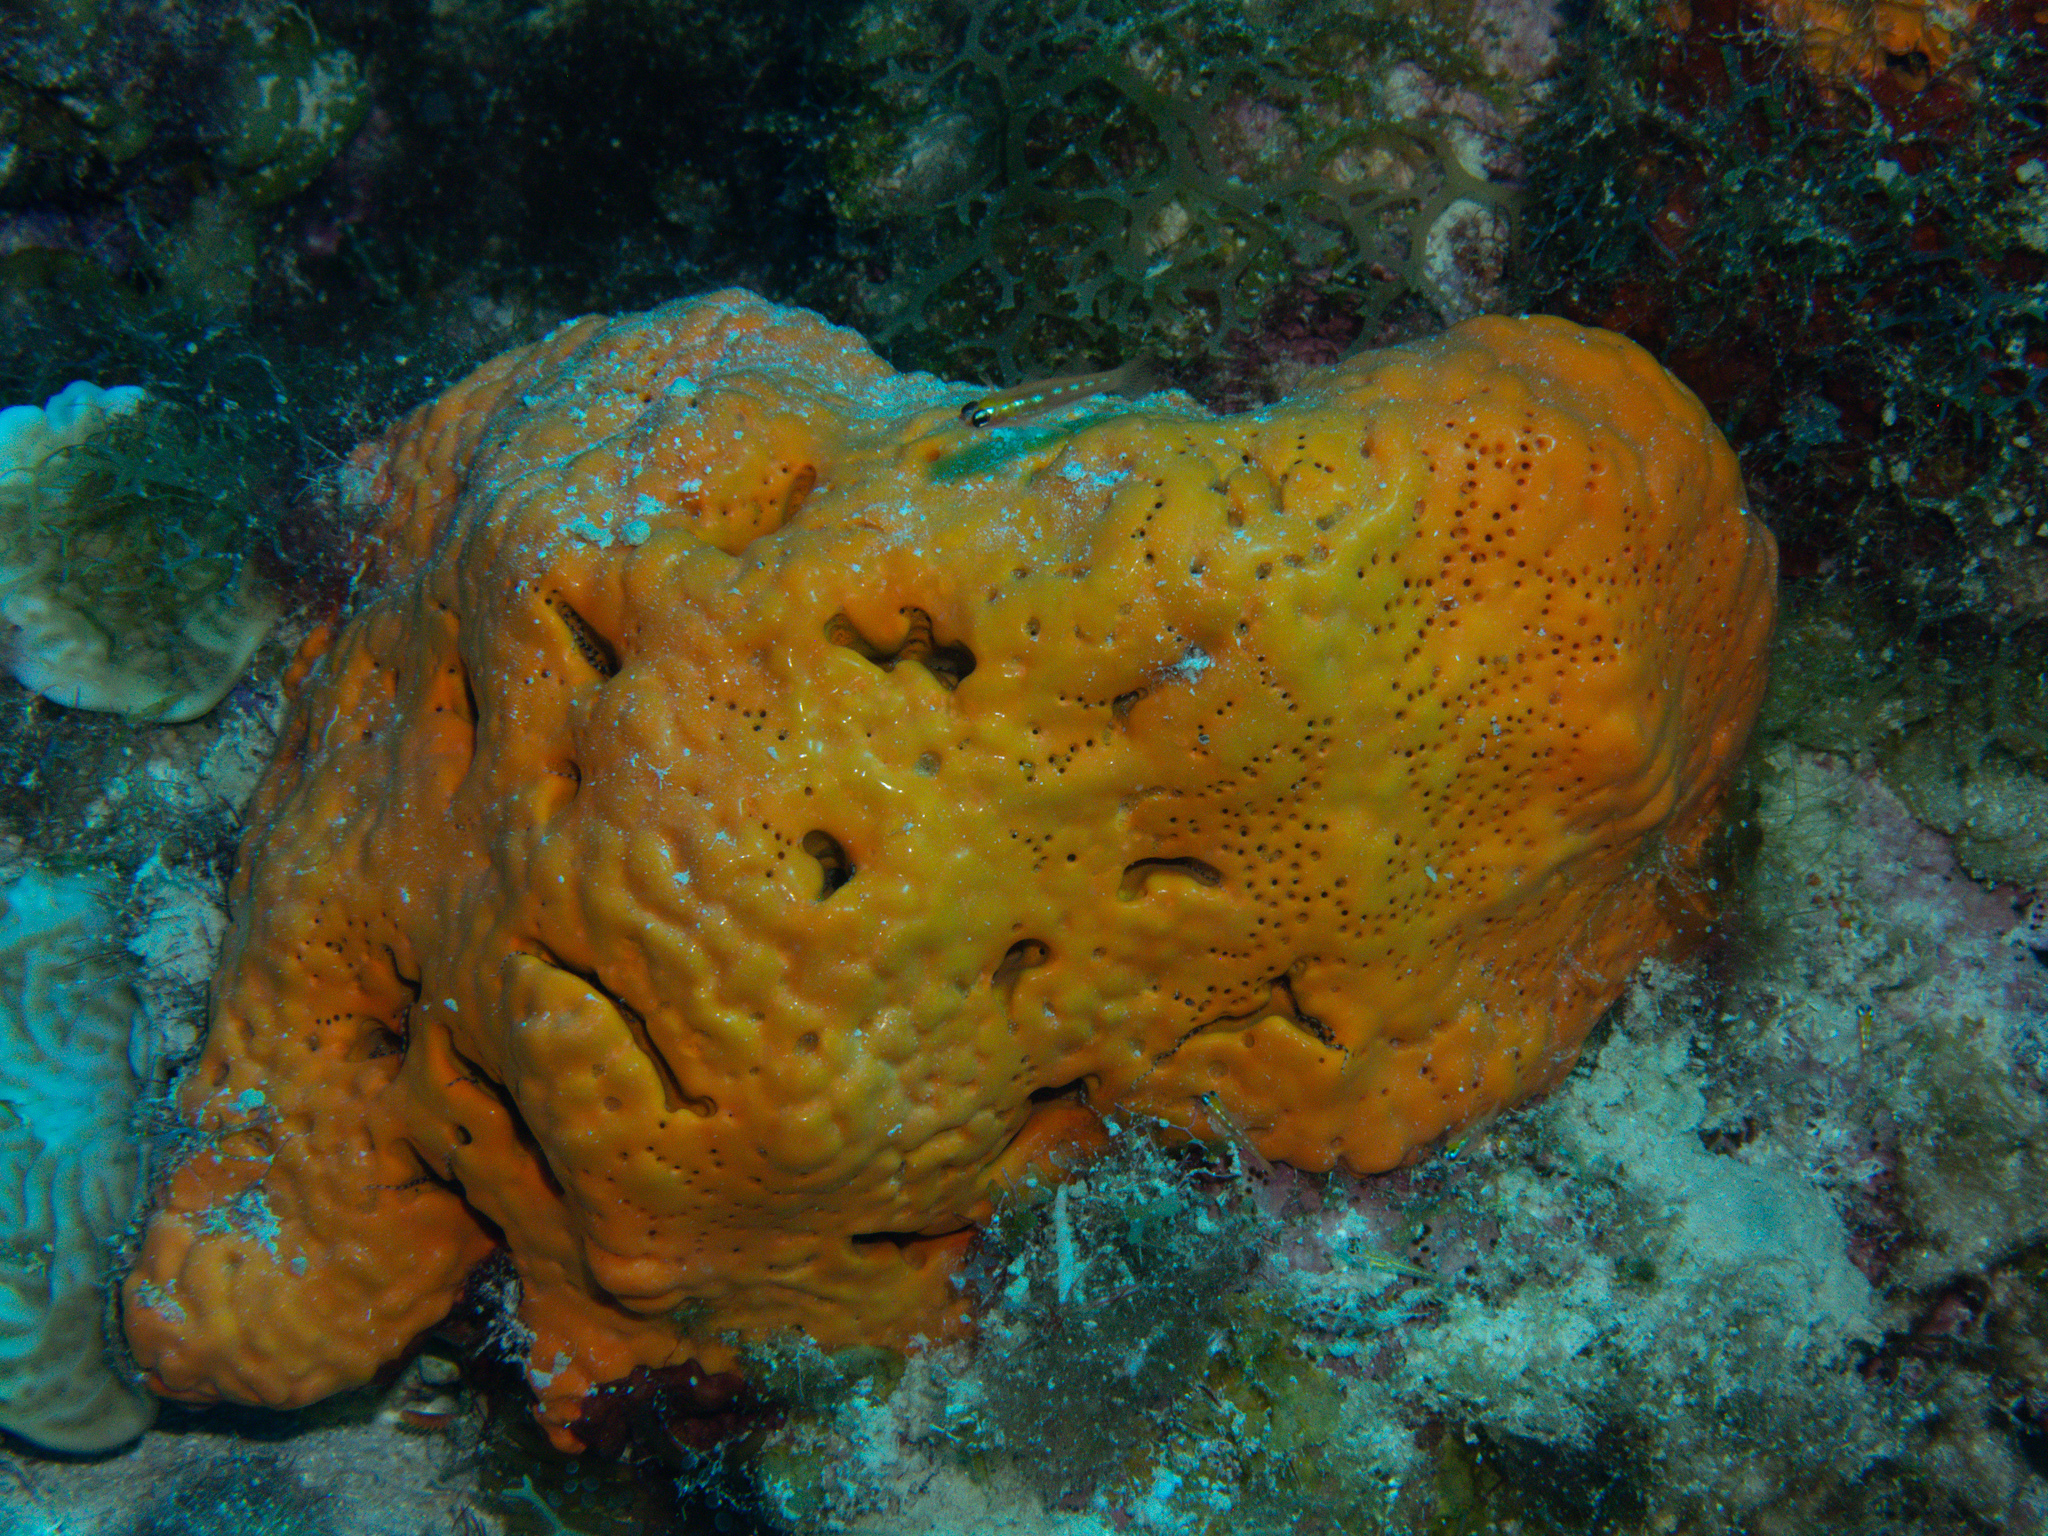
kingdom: Animalia
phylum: Porifera
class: Demospongiae
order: Agelasida
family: Agelasidae
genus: Agelas
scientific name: Agelas clathrodes
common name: Orange elephant ear sponge
